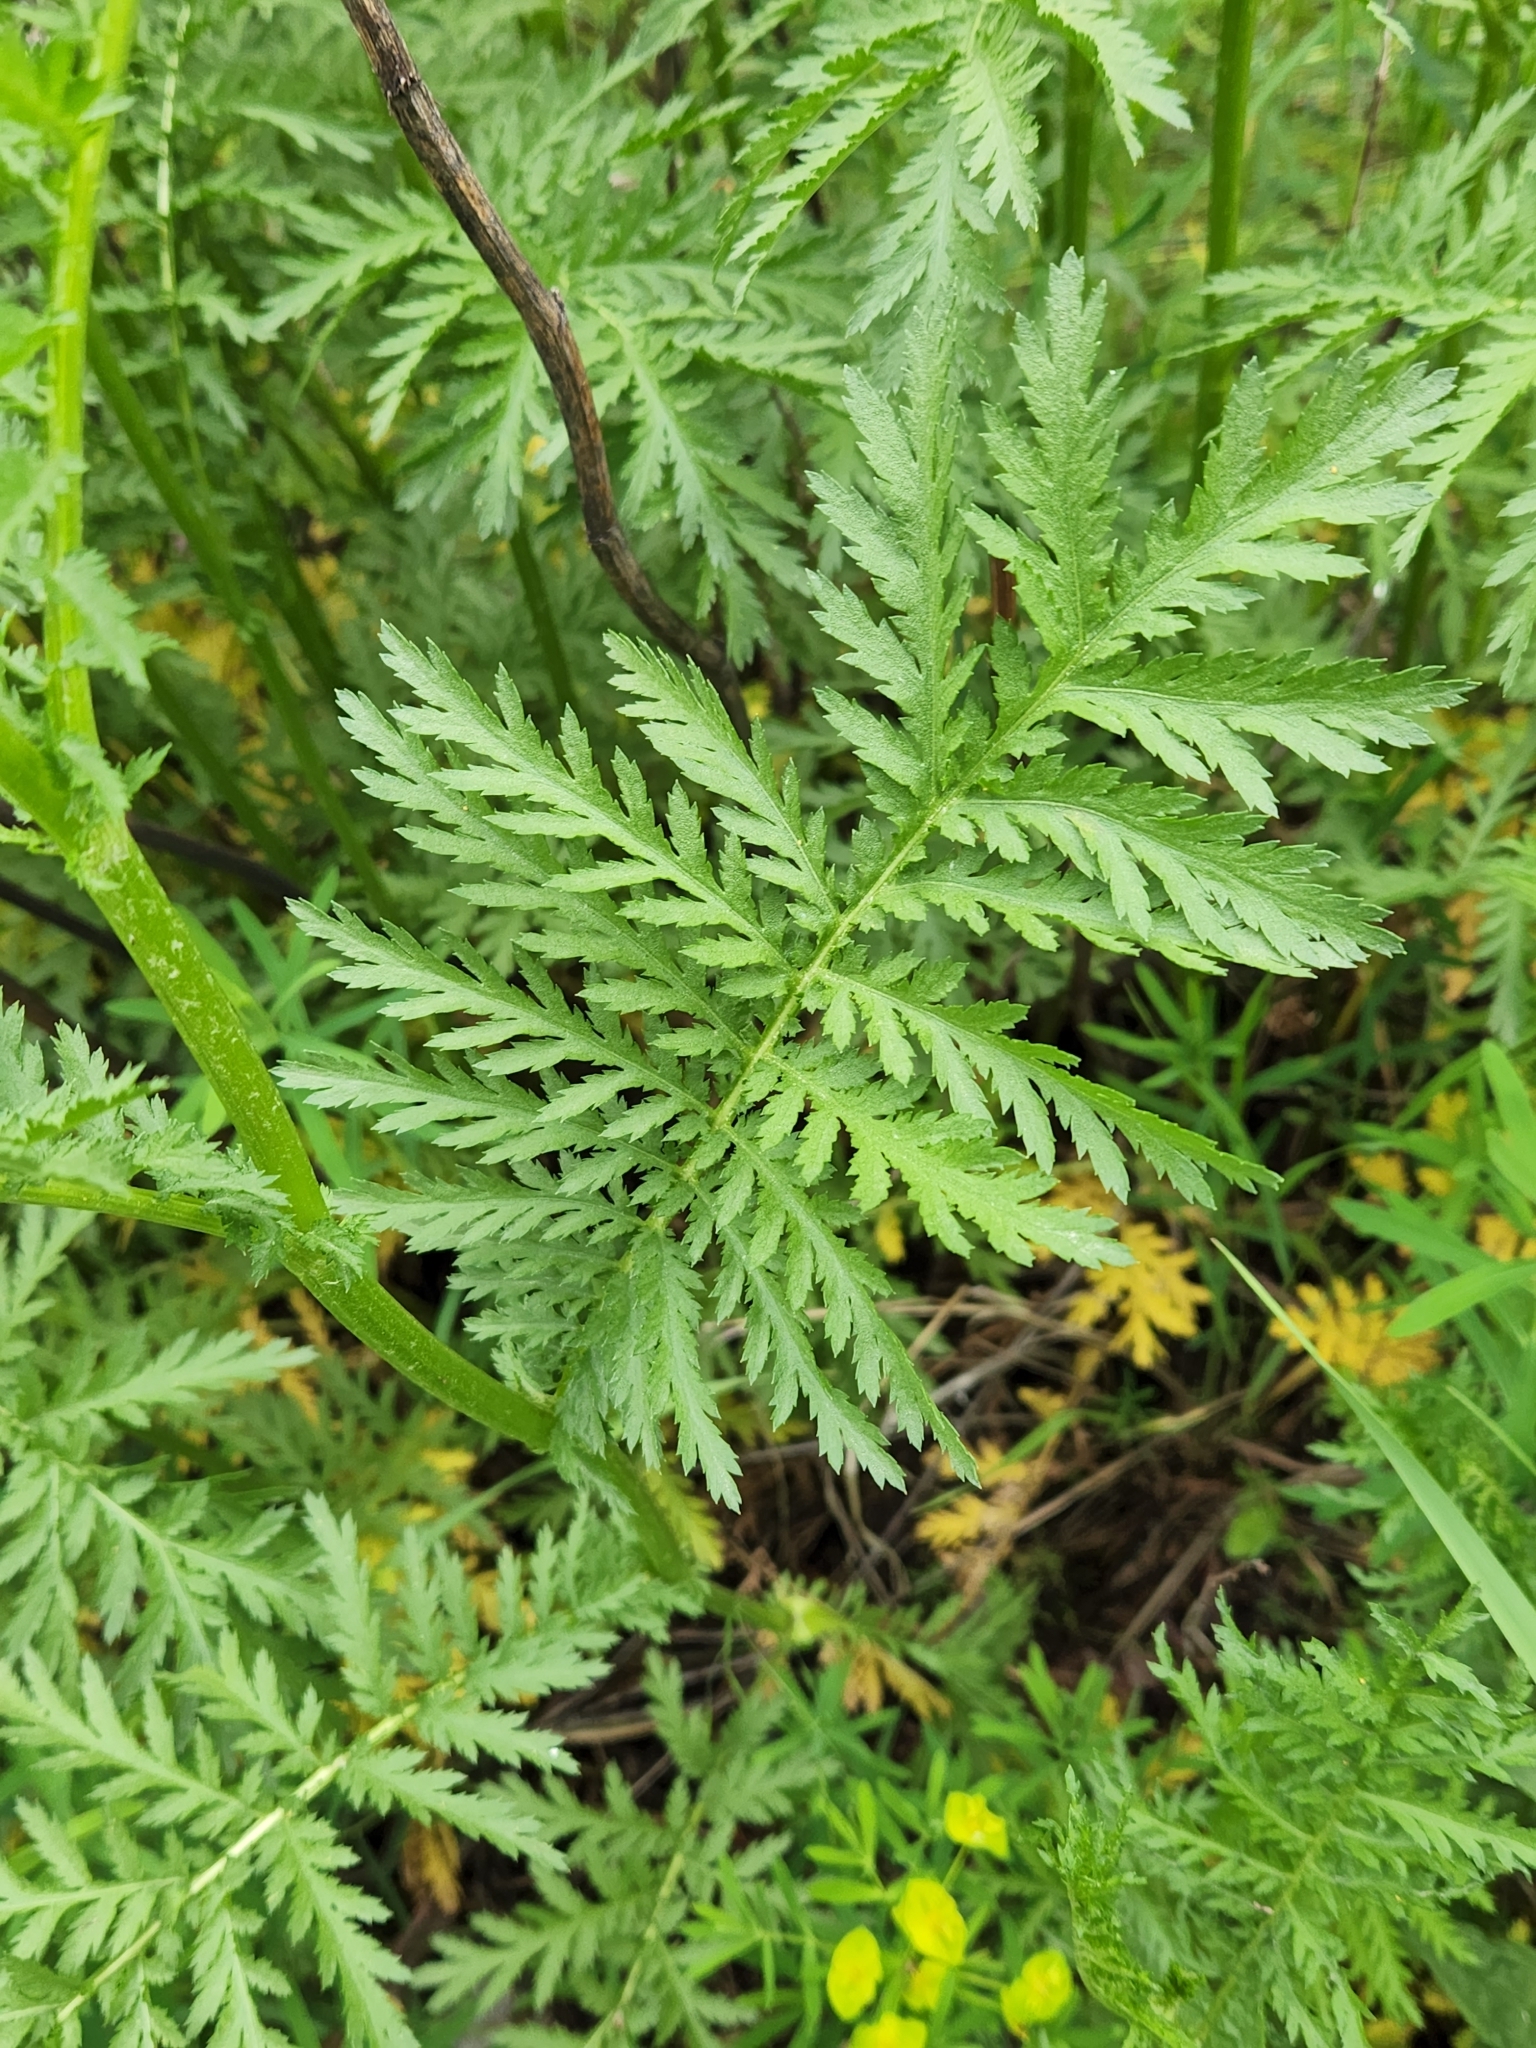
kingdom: Plantae
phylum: Tracheophyta
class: Magnoliopsida
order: Asterales
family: Asteraceae
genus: Tanacetum
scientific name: Tanacetum vulgare
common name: Common tansy
